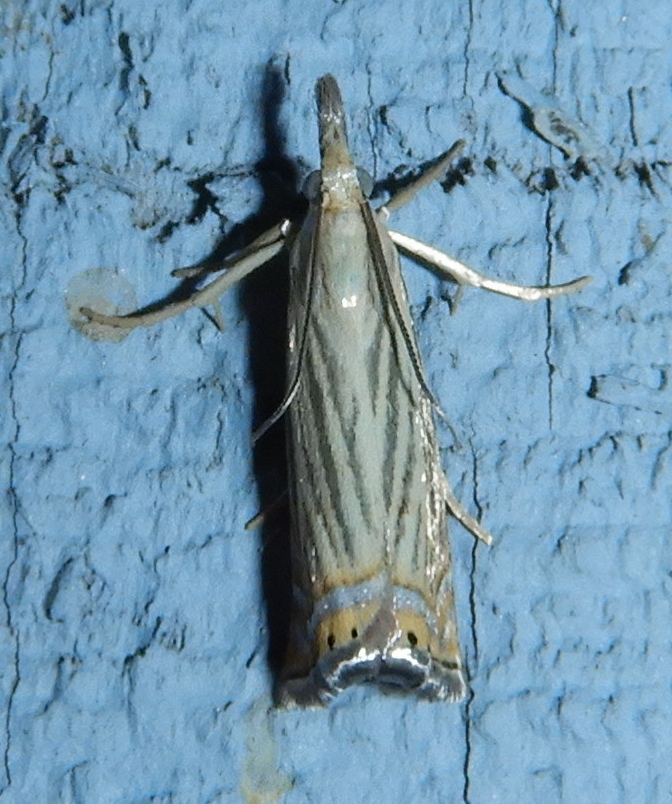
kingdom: Animalia
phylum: Arthropoda
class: Insecta
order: Lepidoptera
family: Crambidae
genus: Chrysoteuchia
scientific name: Chrysoteuchia topiarius
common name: Topiary grass-veneer
